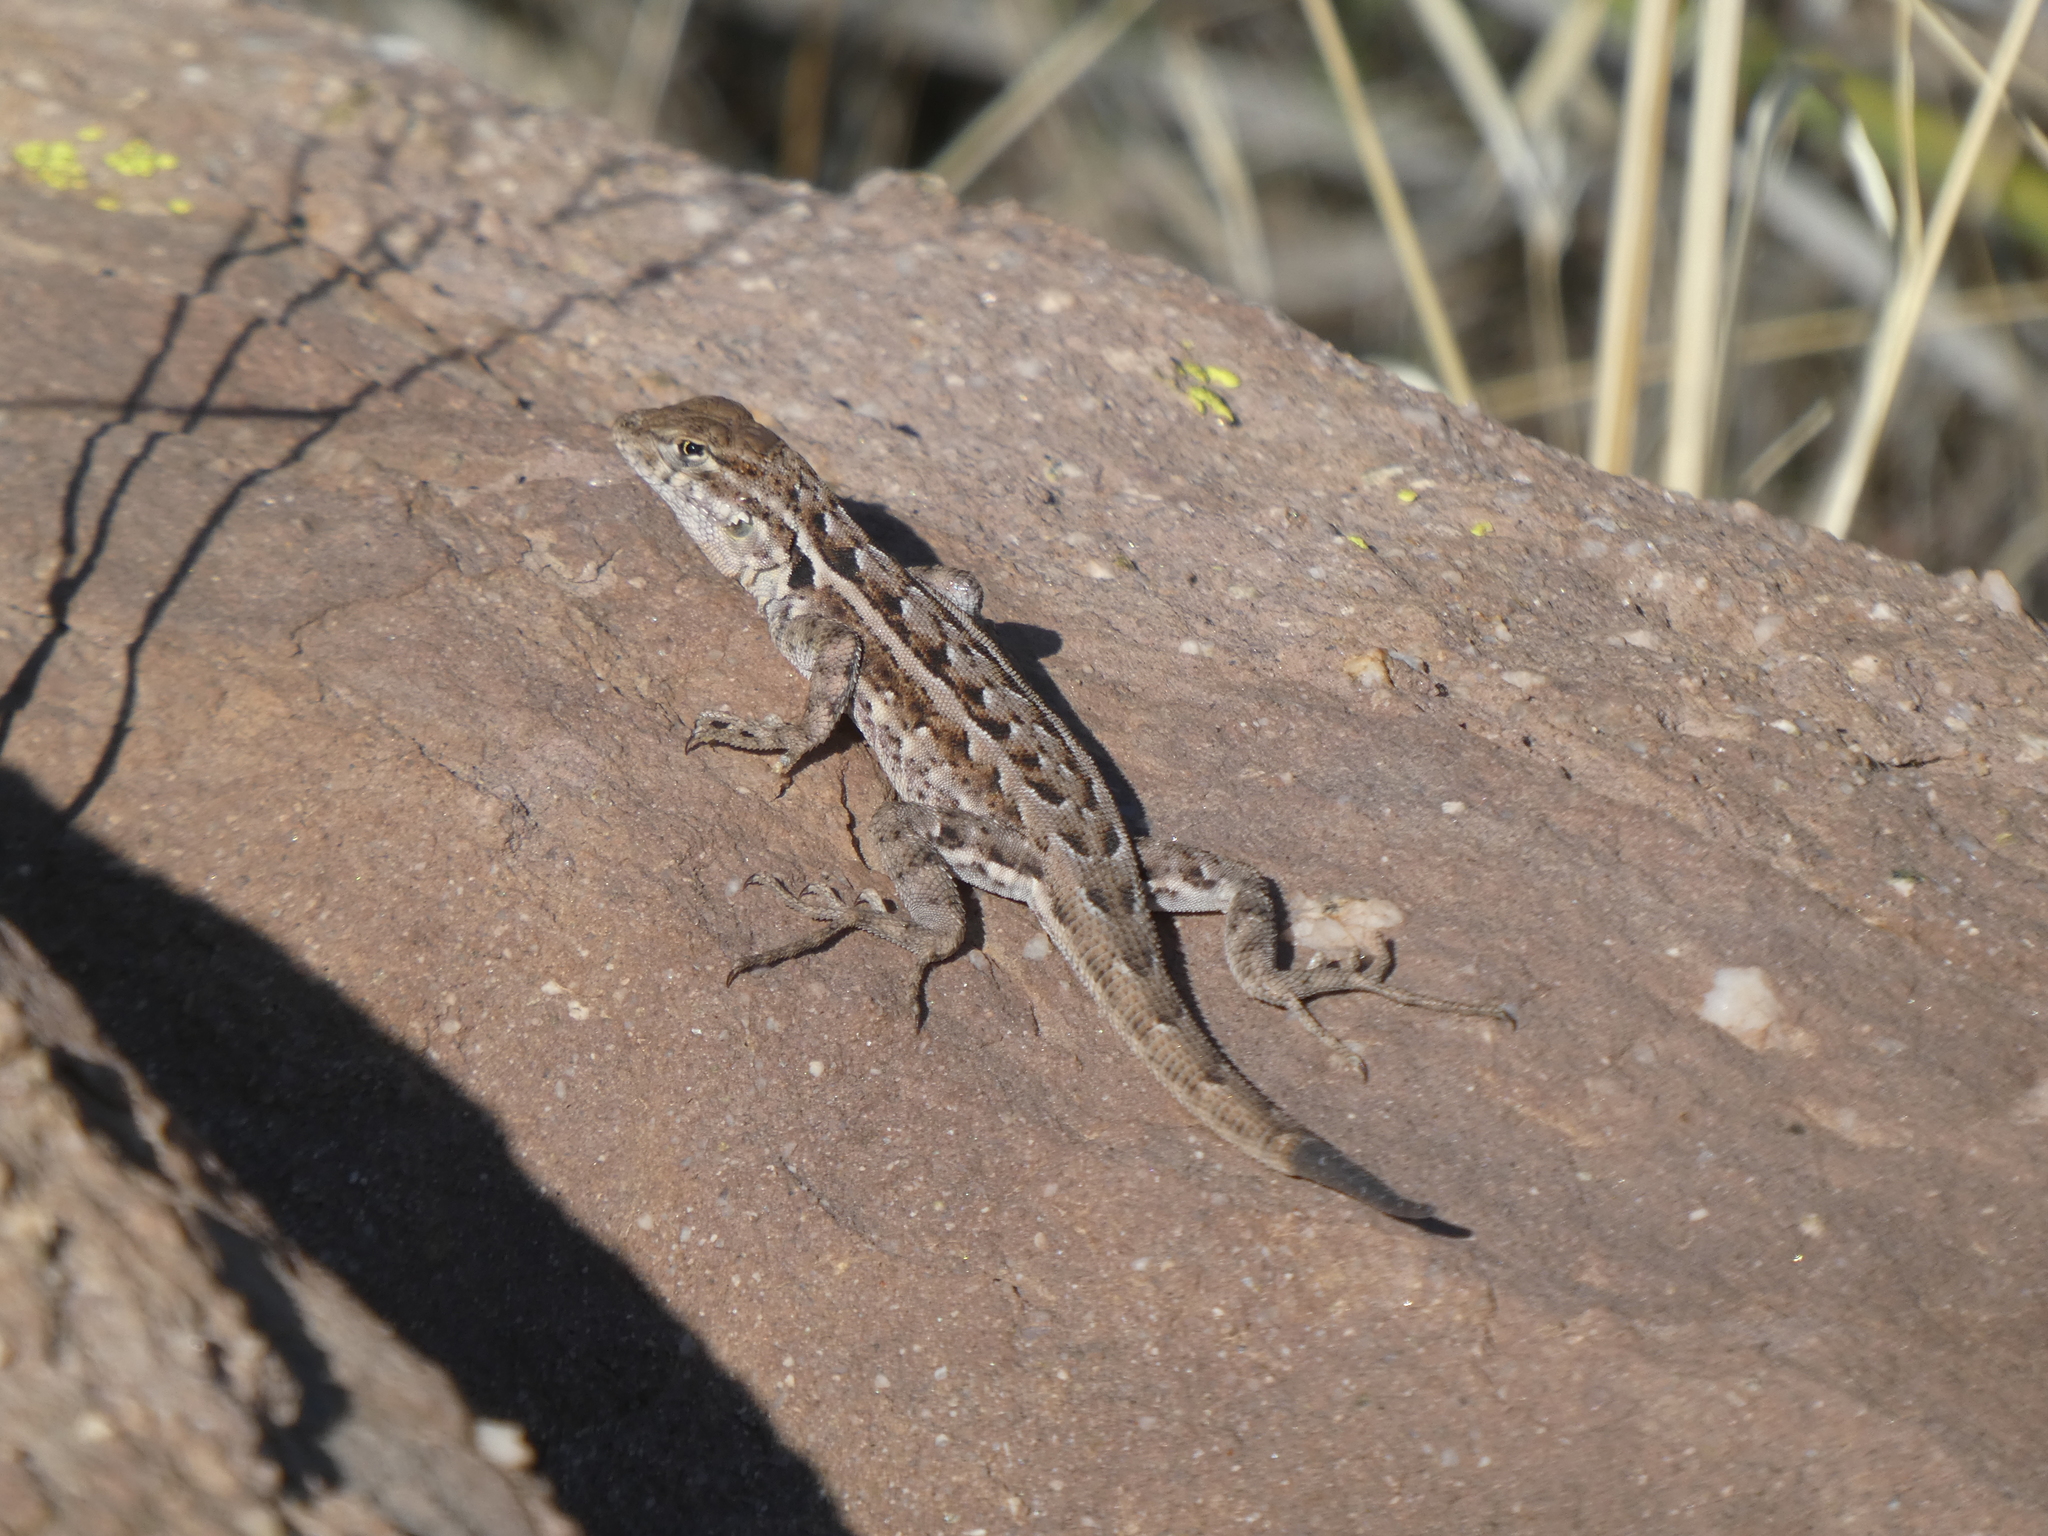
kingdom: Animalia
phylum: Chordata
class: Squamata
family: Phrynosomatidae
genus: Uta
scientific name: Uta stansburiana
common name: Side-blotched lizard
